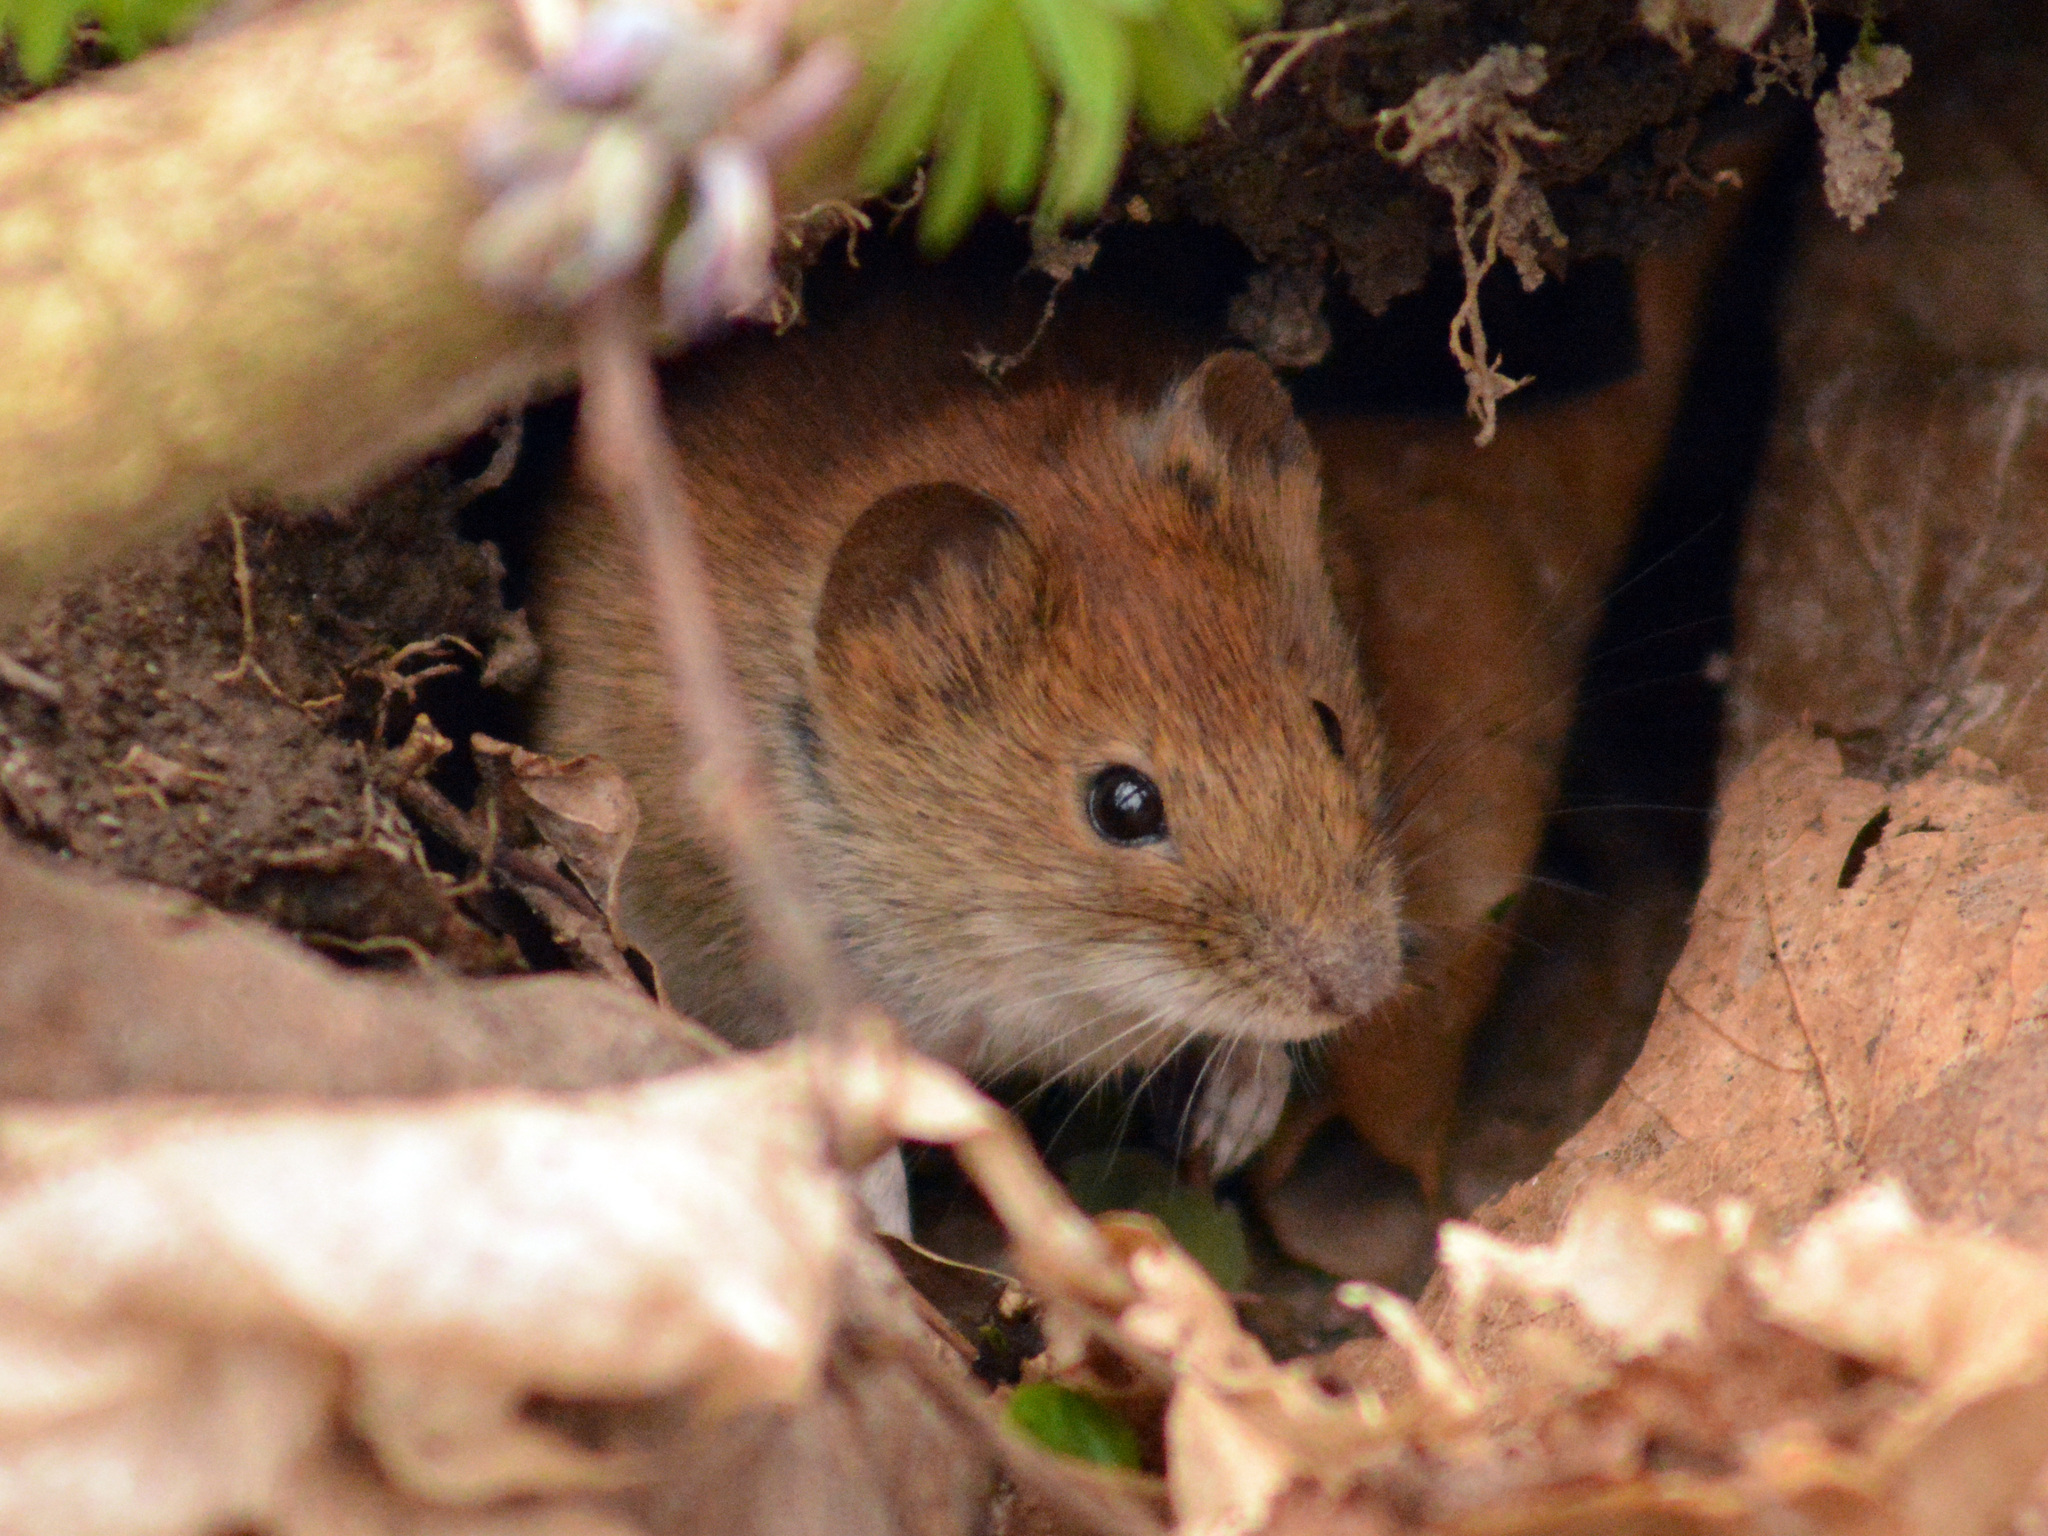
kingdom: Animalia
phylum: Chordata
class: Mammalia
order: Rodentia
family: Cricetidae
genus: Myodes
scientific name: Myodes glareolus
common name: Bank vole
